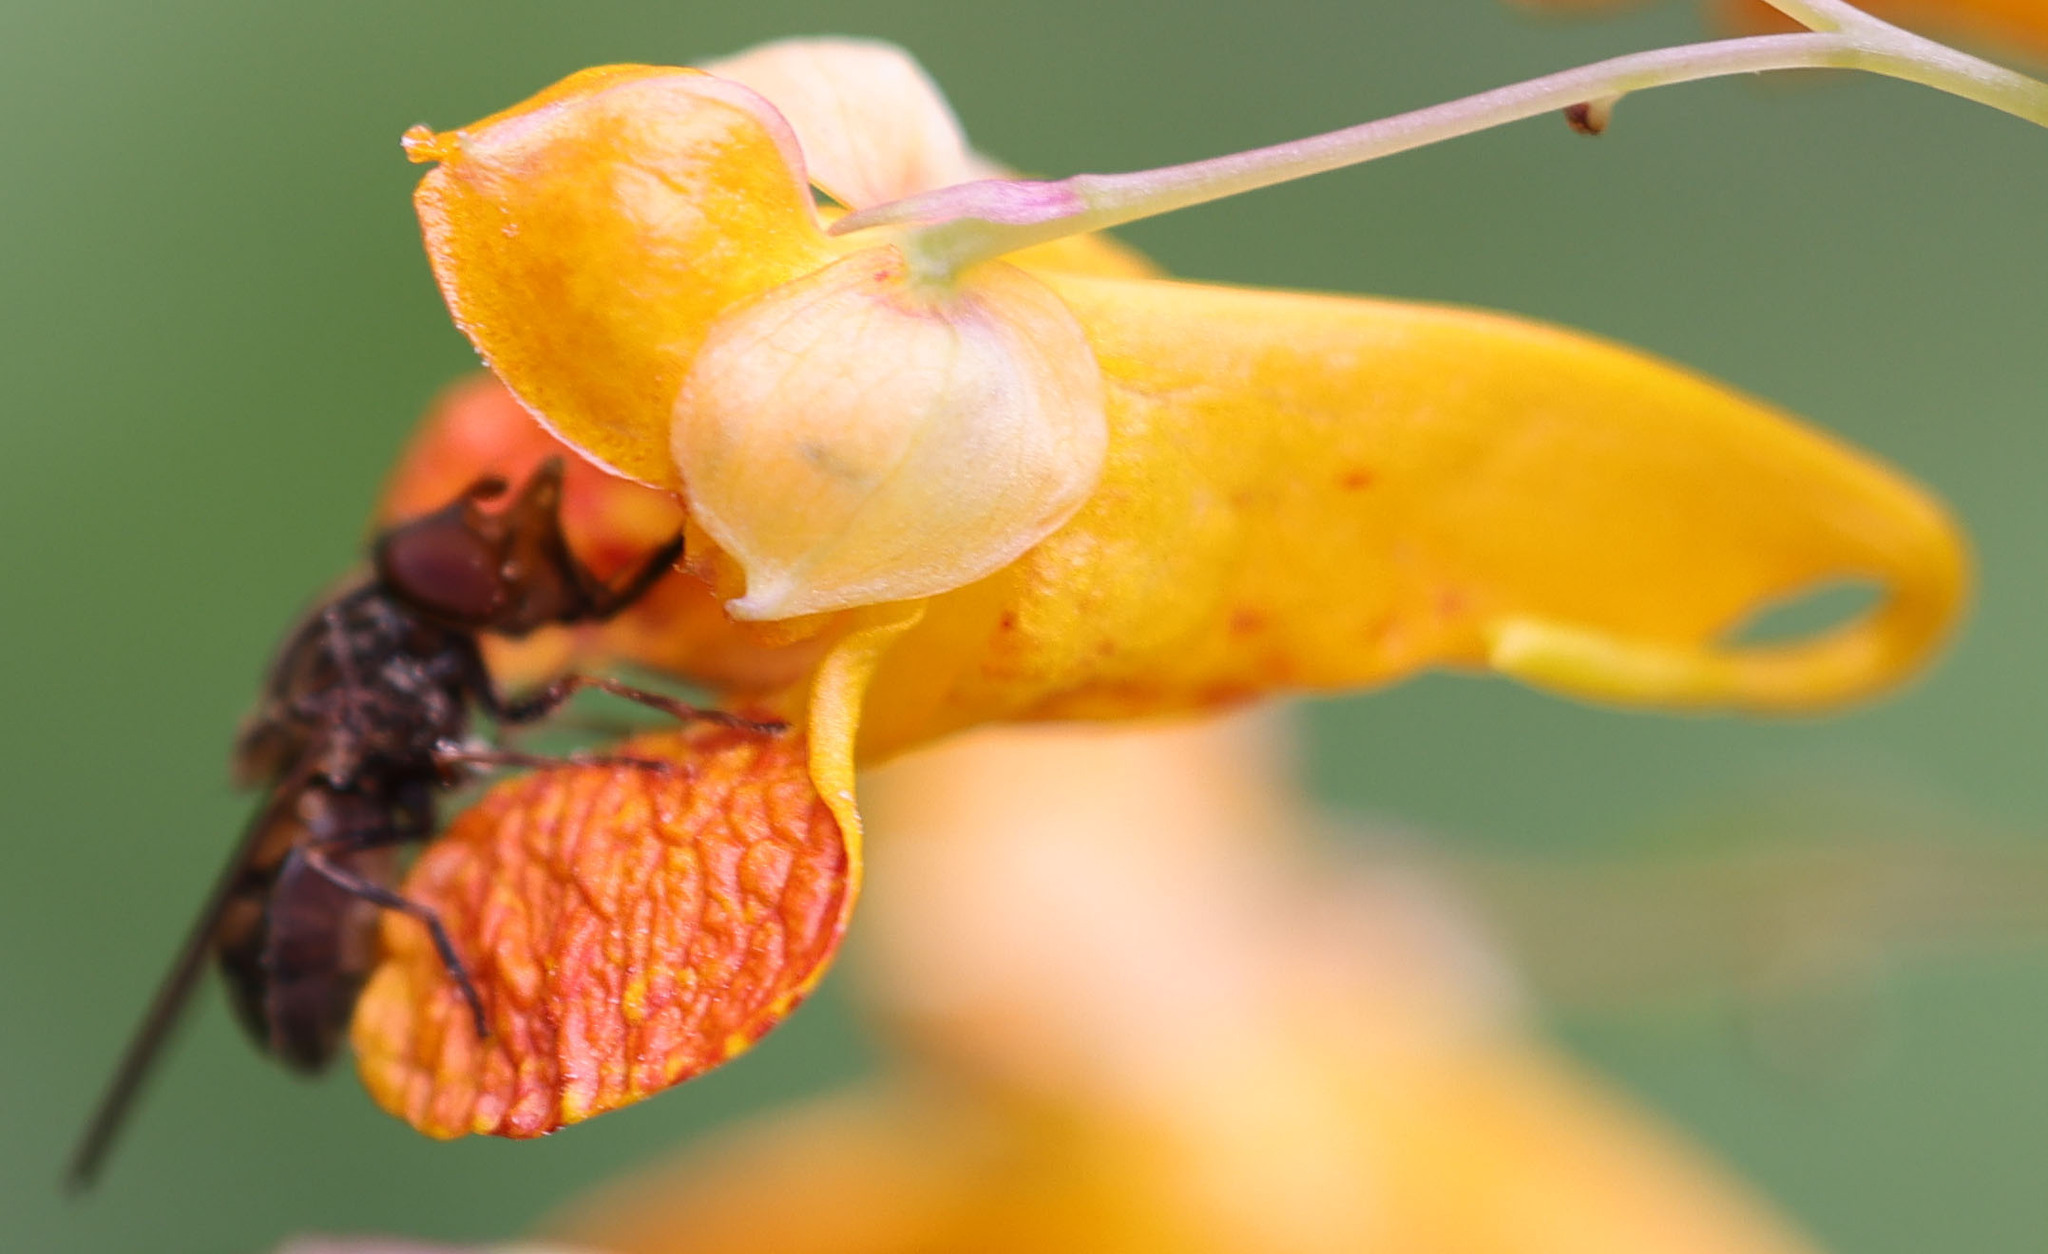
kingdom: Animalia
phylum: Arthropoda
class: Insecta
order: Diptera
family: Syrphidae
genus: Rhingia
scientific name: Rhingia nasica
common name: American snout fly
